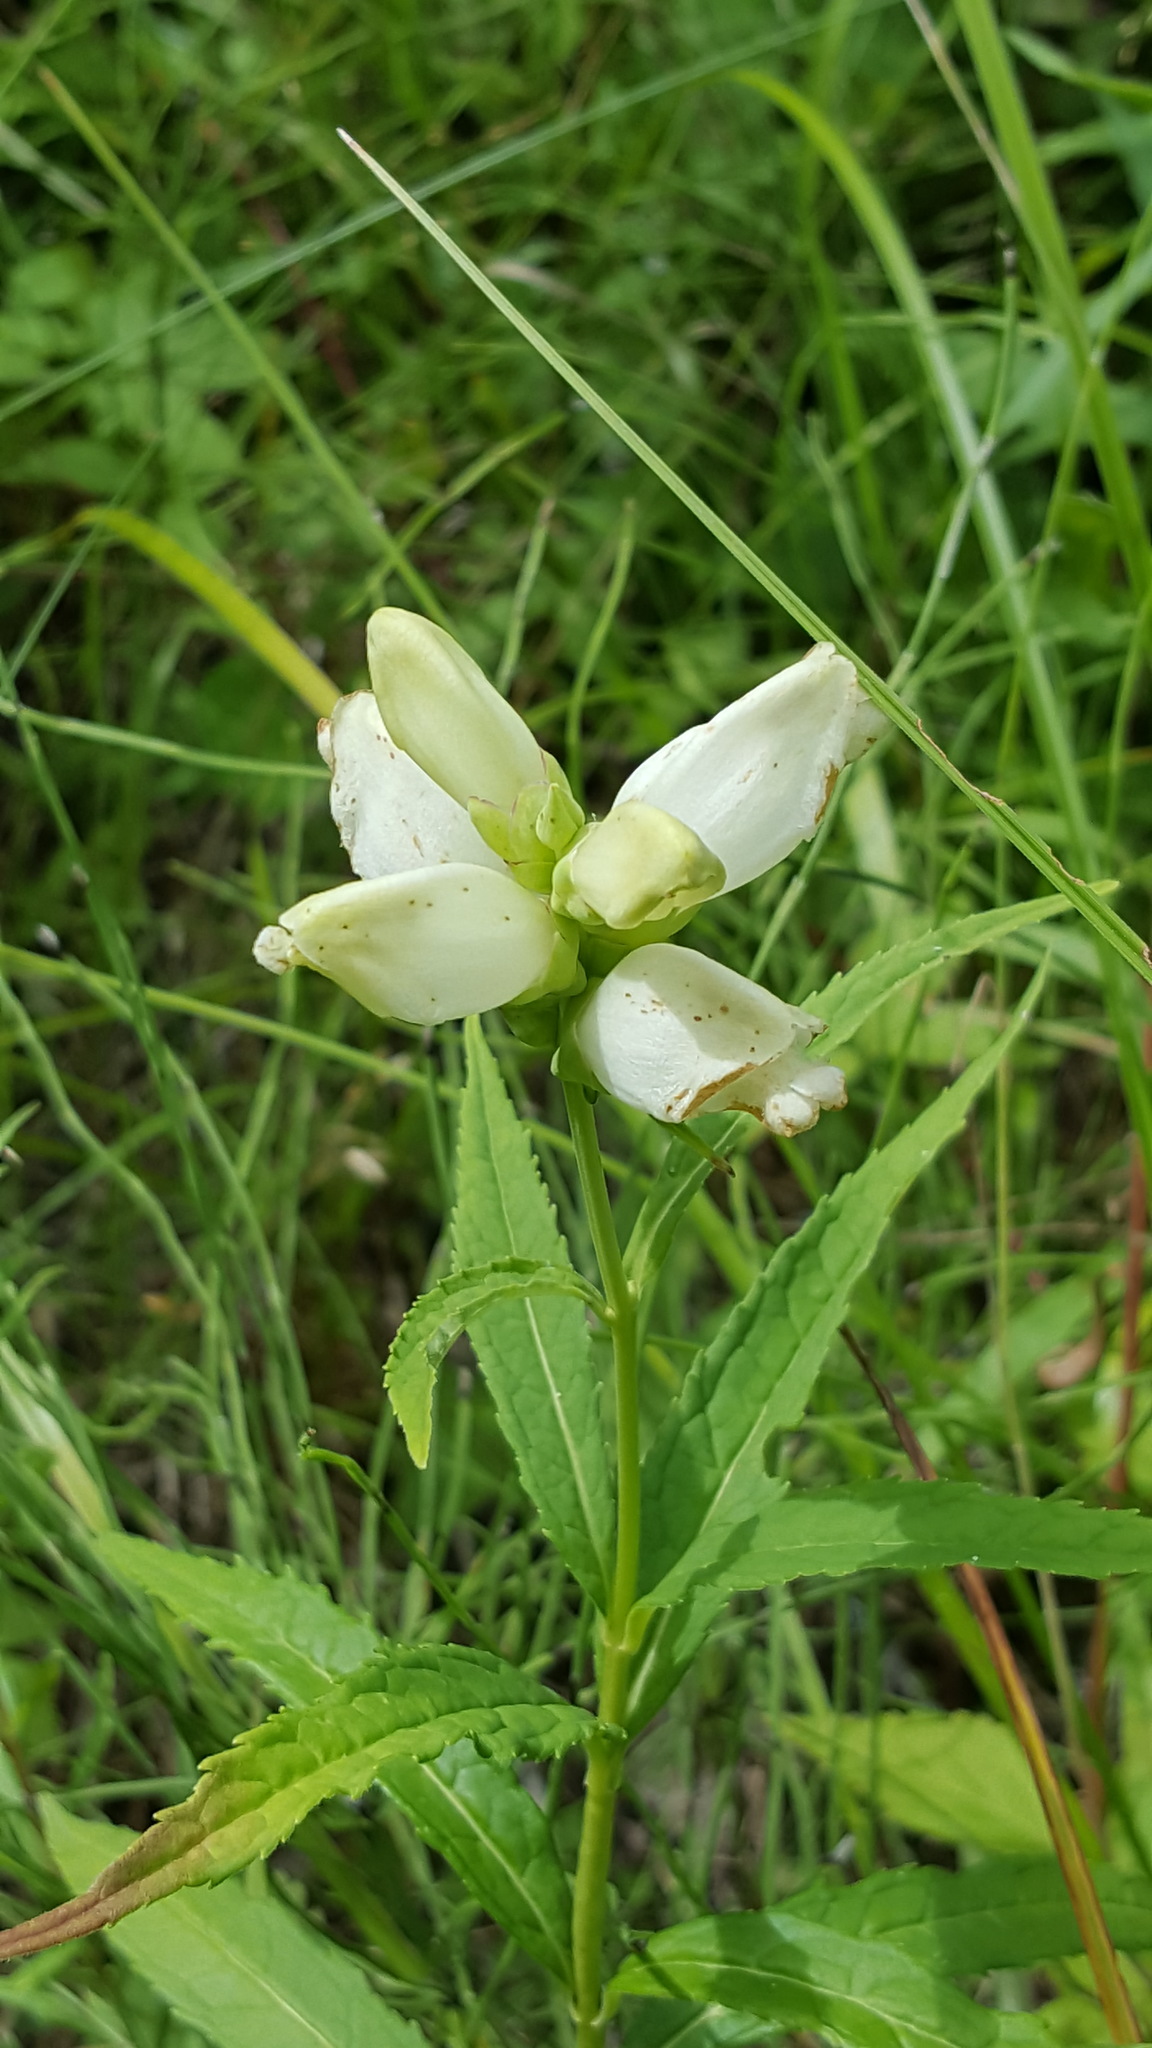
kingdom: Plantae
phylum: Tracheophyta
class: Magnoliopsida
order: Lamiales
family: Plantaginaceae
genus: Chelone
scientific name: Chelone glabra
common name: Snakehead
